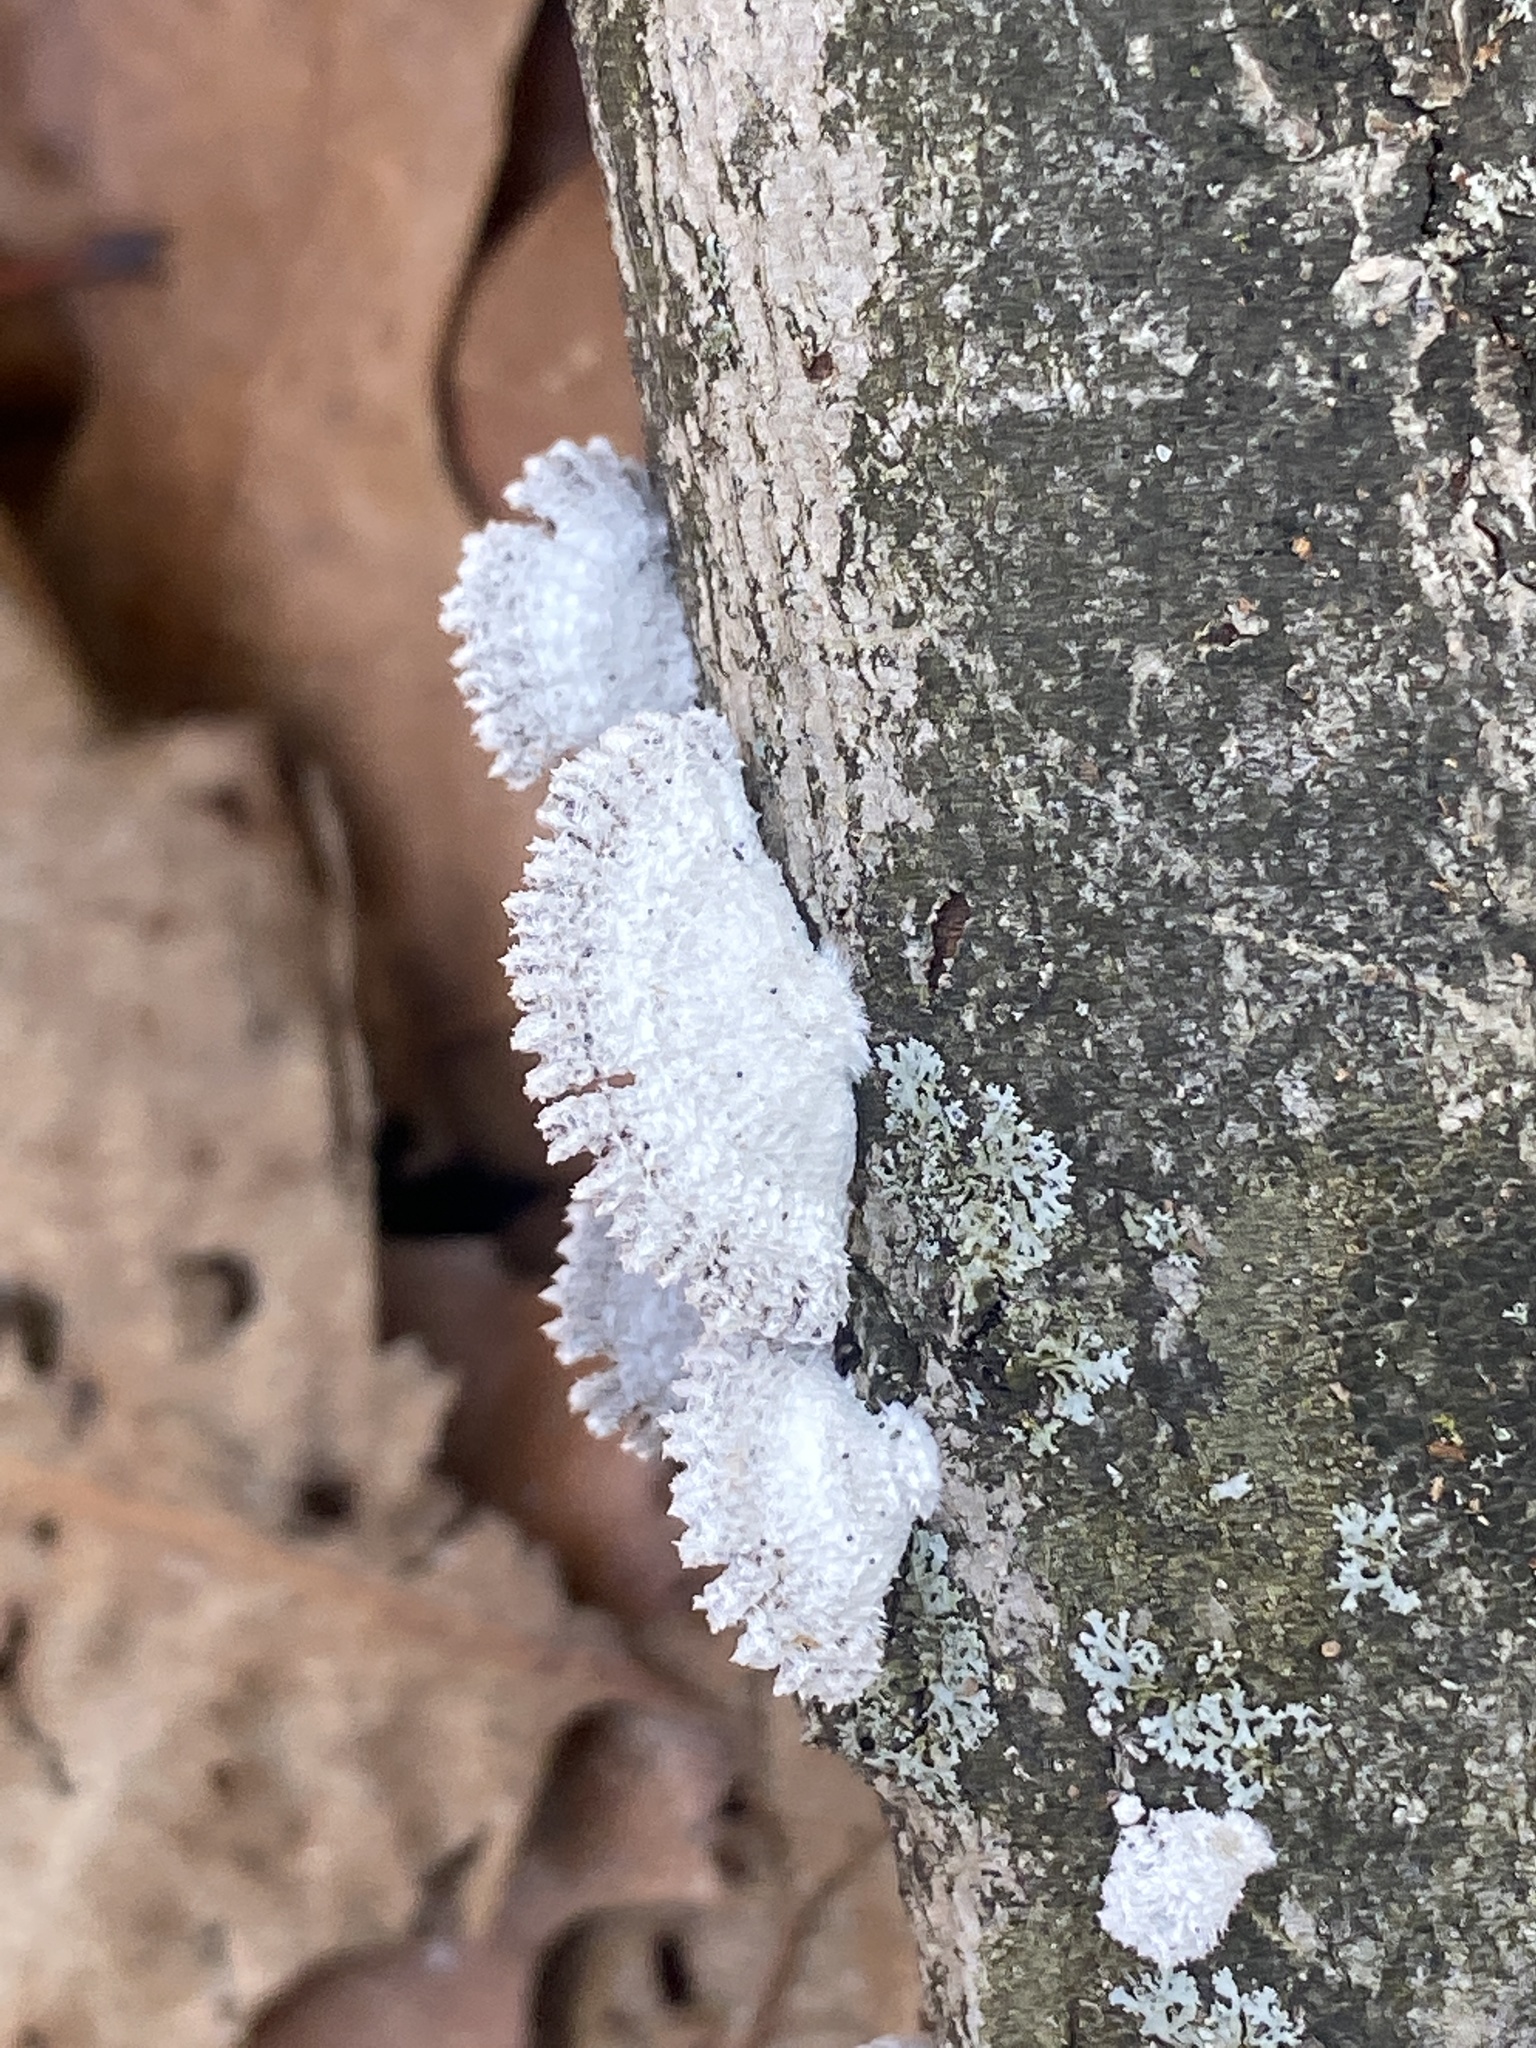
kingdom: Fungi
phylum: Basidiomycota
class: Agaricomycetes
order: Agaricales
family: Schizophyllaceae
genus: Schizophyllum
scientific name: Schizophyllum commune
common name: Common porecrust
